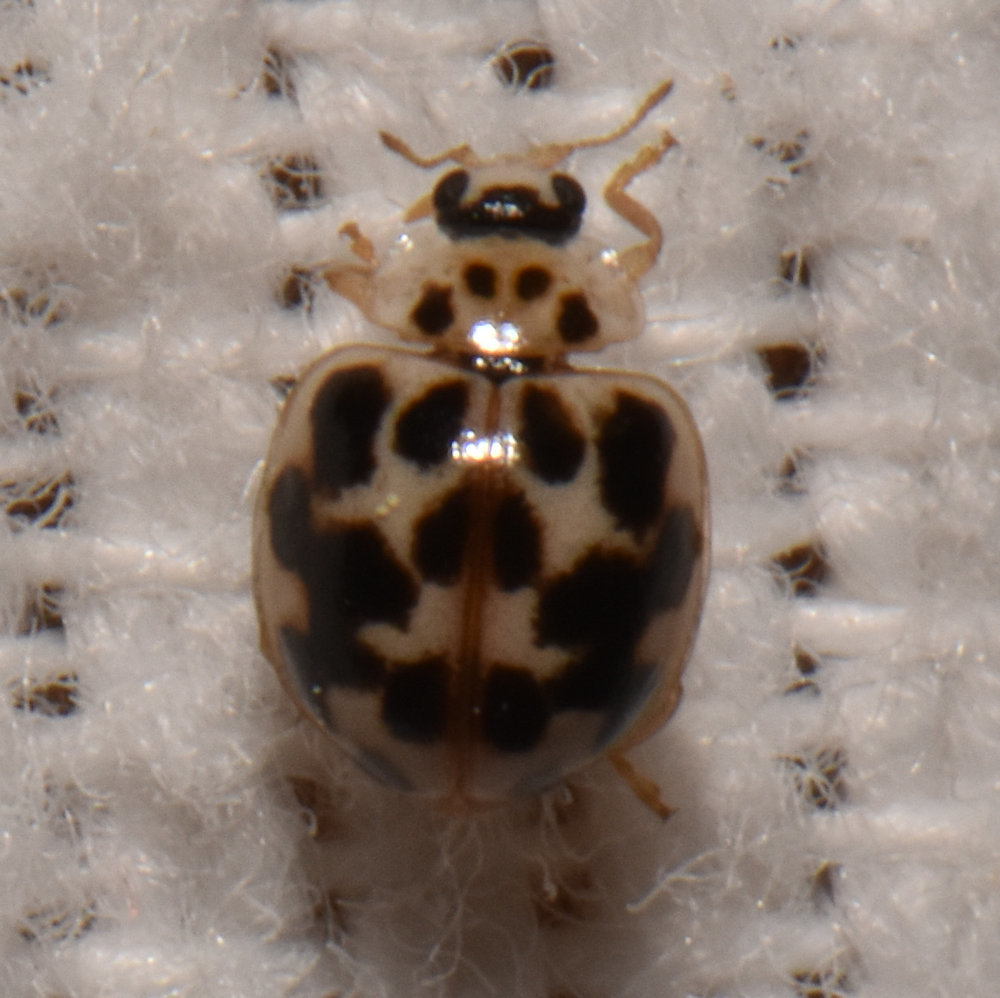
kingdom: Animalia
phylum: Arthropoda
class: Insecta
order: Coleoptera
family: Coccinellidae
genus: Psyllobora
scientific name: Psyllobora vigintimaculata
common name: Ladybird beetle
